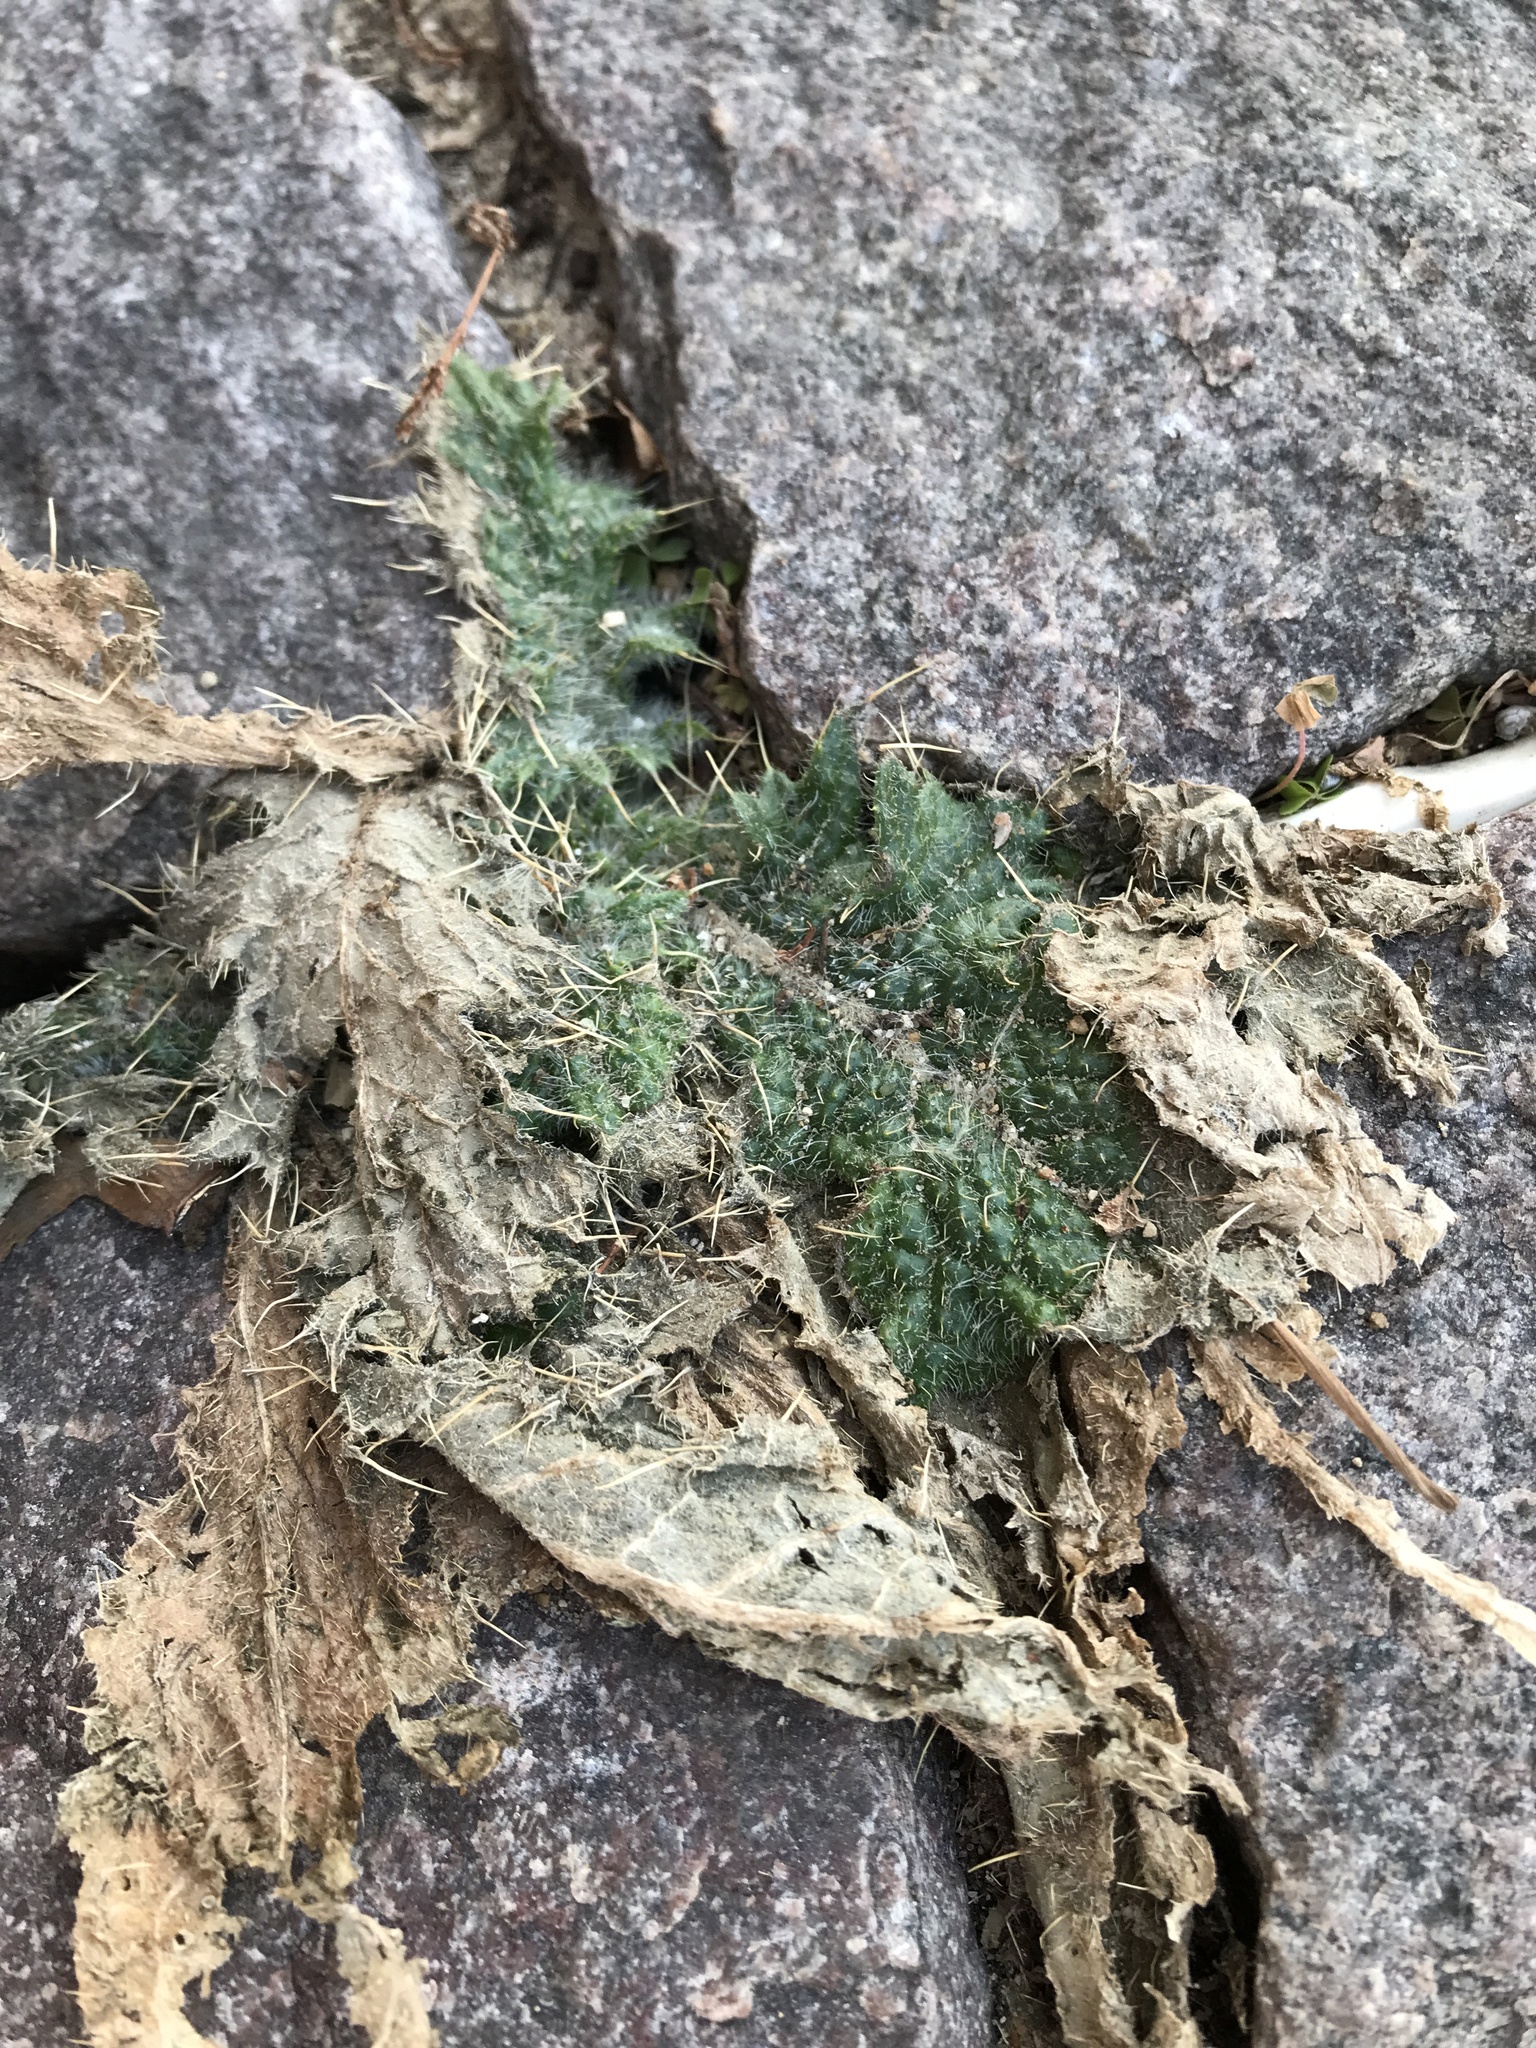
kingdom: Plantae
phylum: Tracheophyta
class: Magnoliopsida
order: Asterales
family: Asteraceae
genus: Cirsium
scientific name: Cirsium vulgare
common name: Bull thistle
